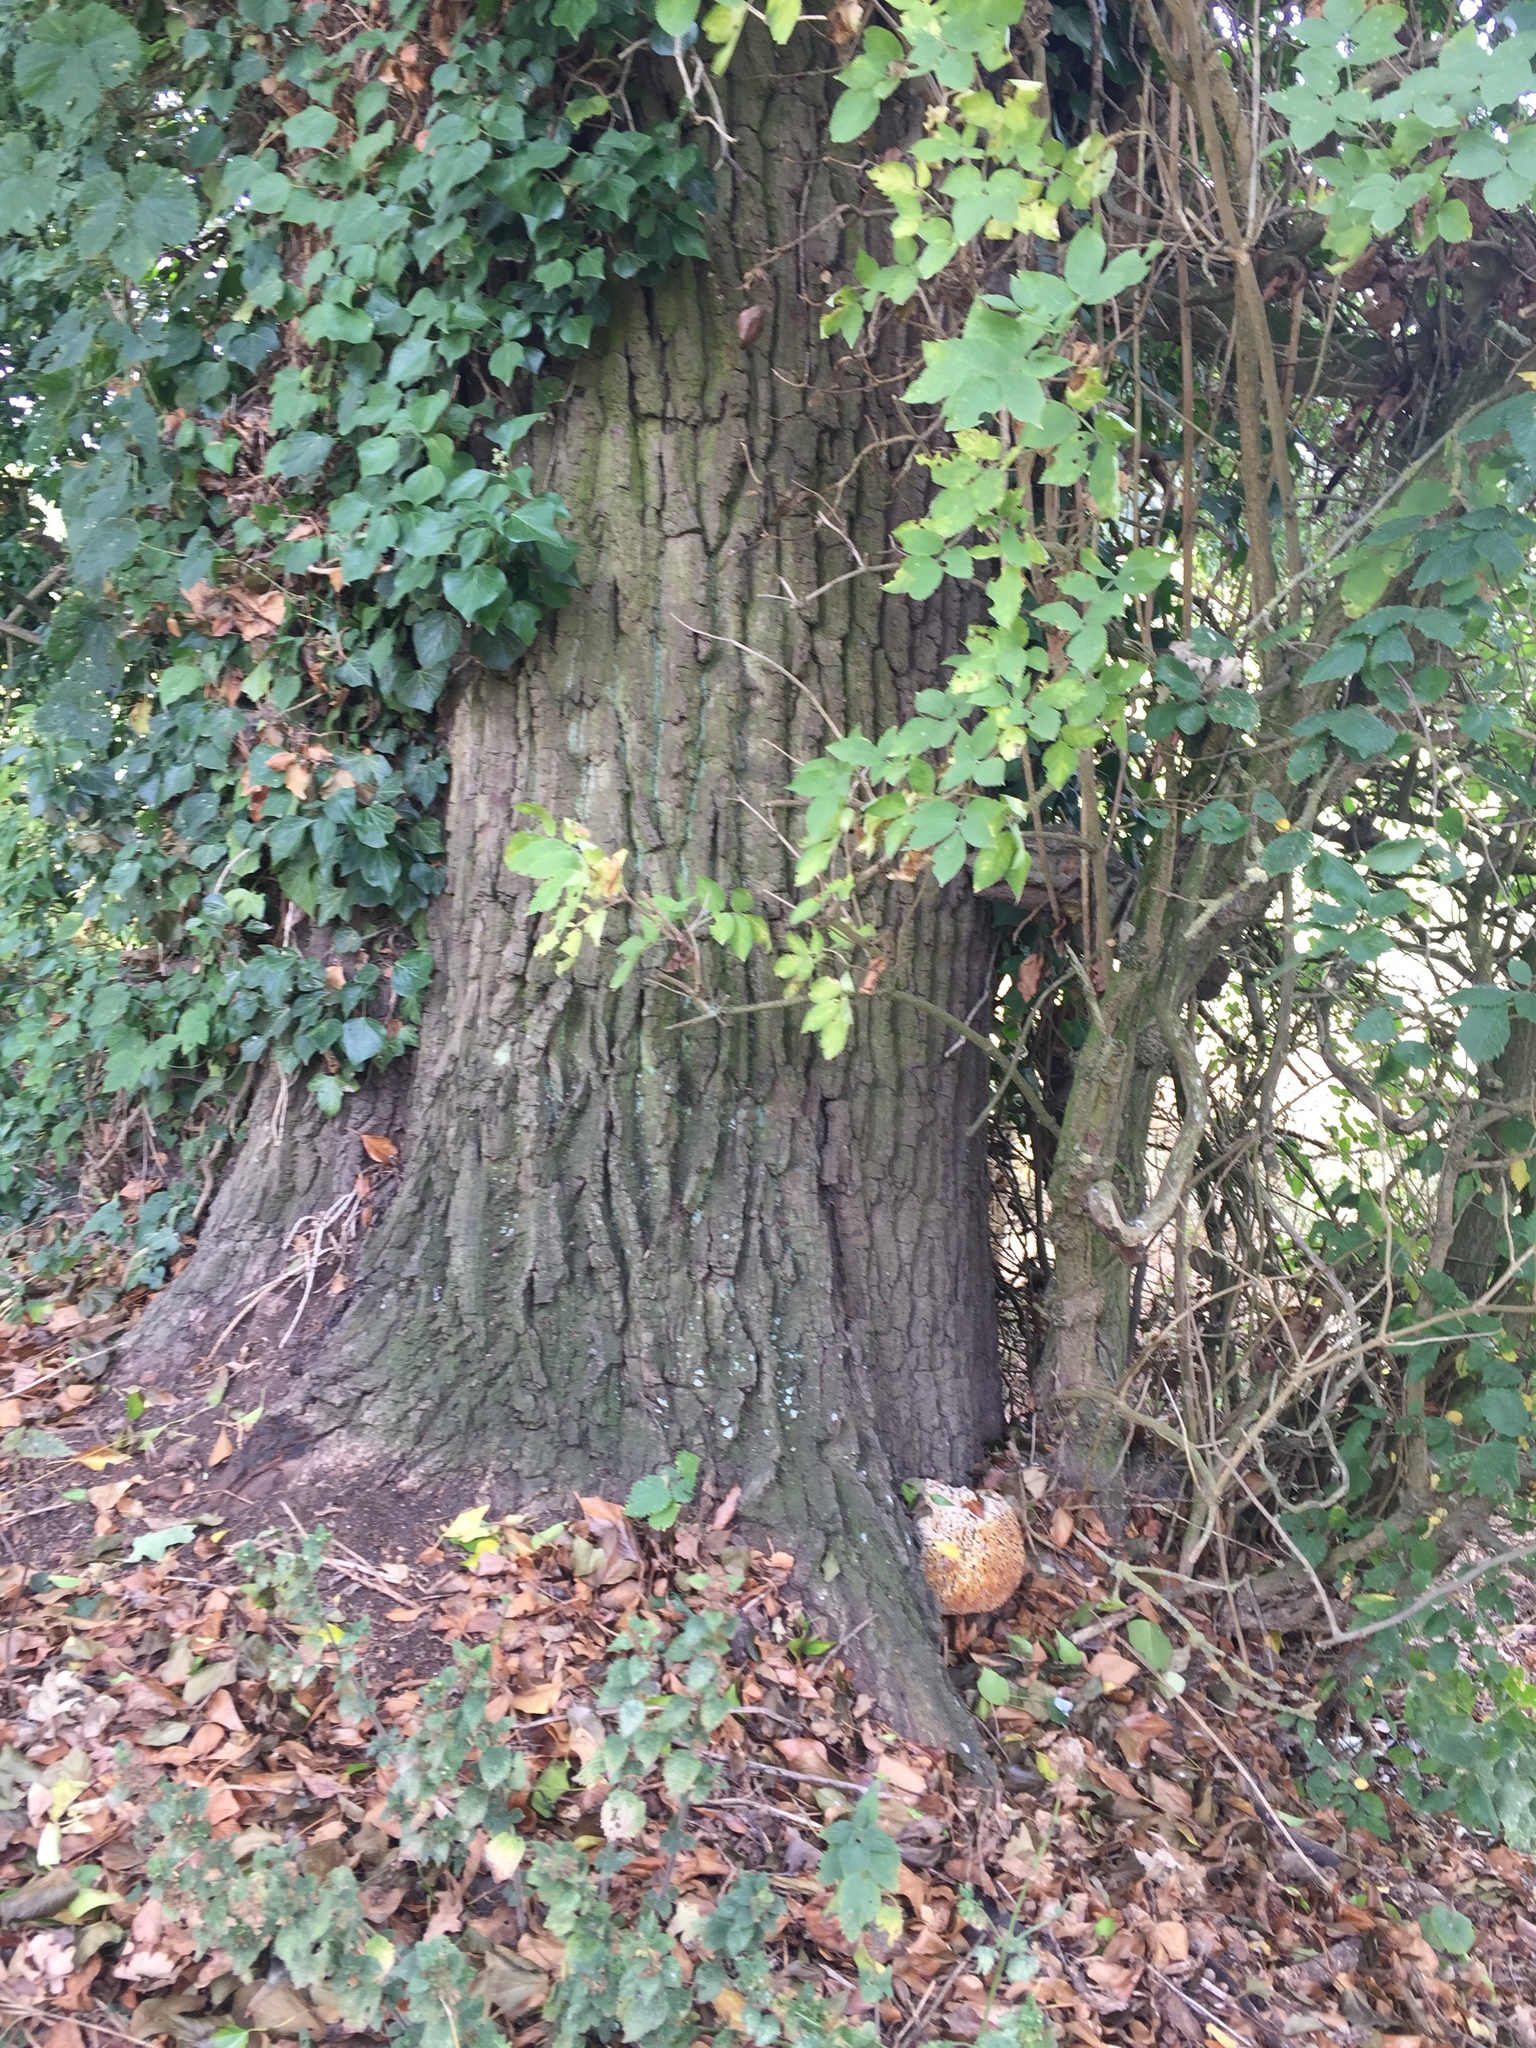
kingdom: Fungi
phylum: Basidiomycota
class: Agaricomycetes
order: Hymenochaetales
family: Hymenochaetaceae
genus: Pseudoinonotus
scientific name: Pseudoinonotus dryadeus
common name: Oak bracket
